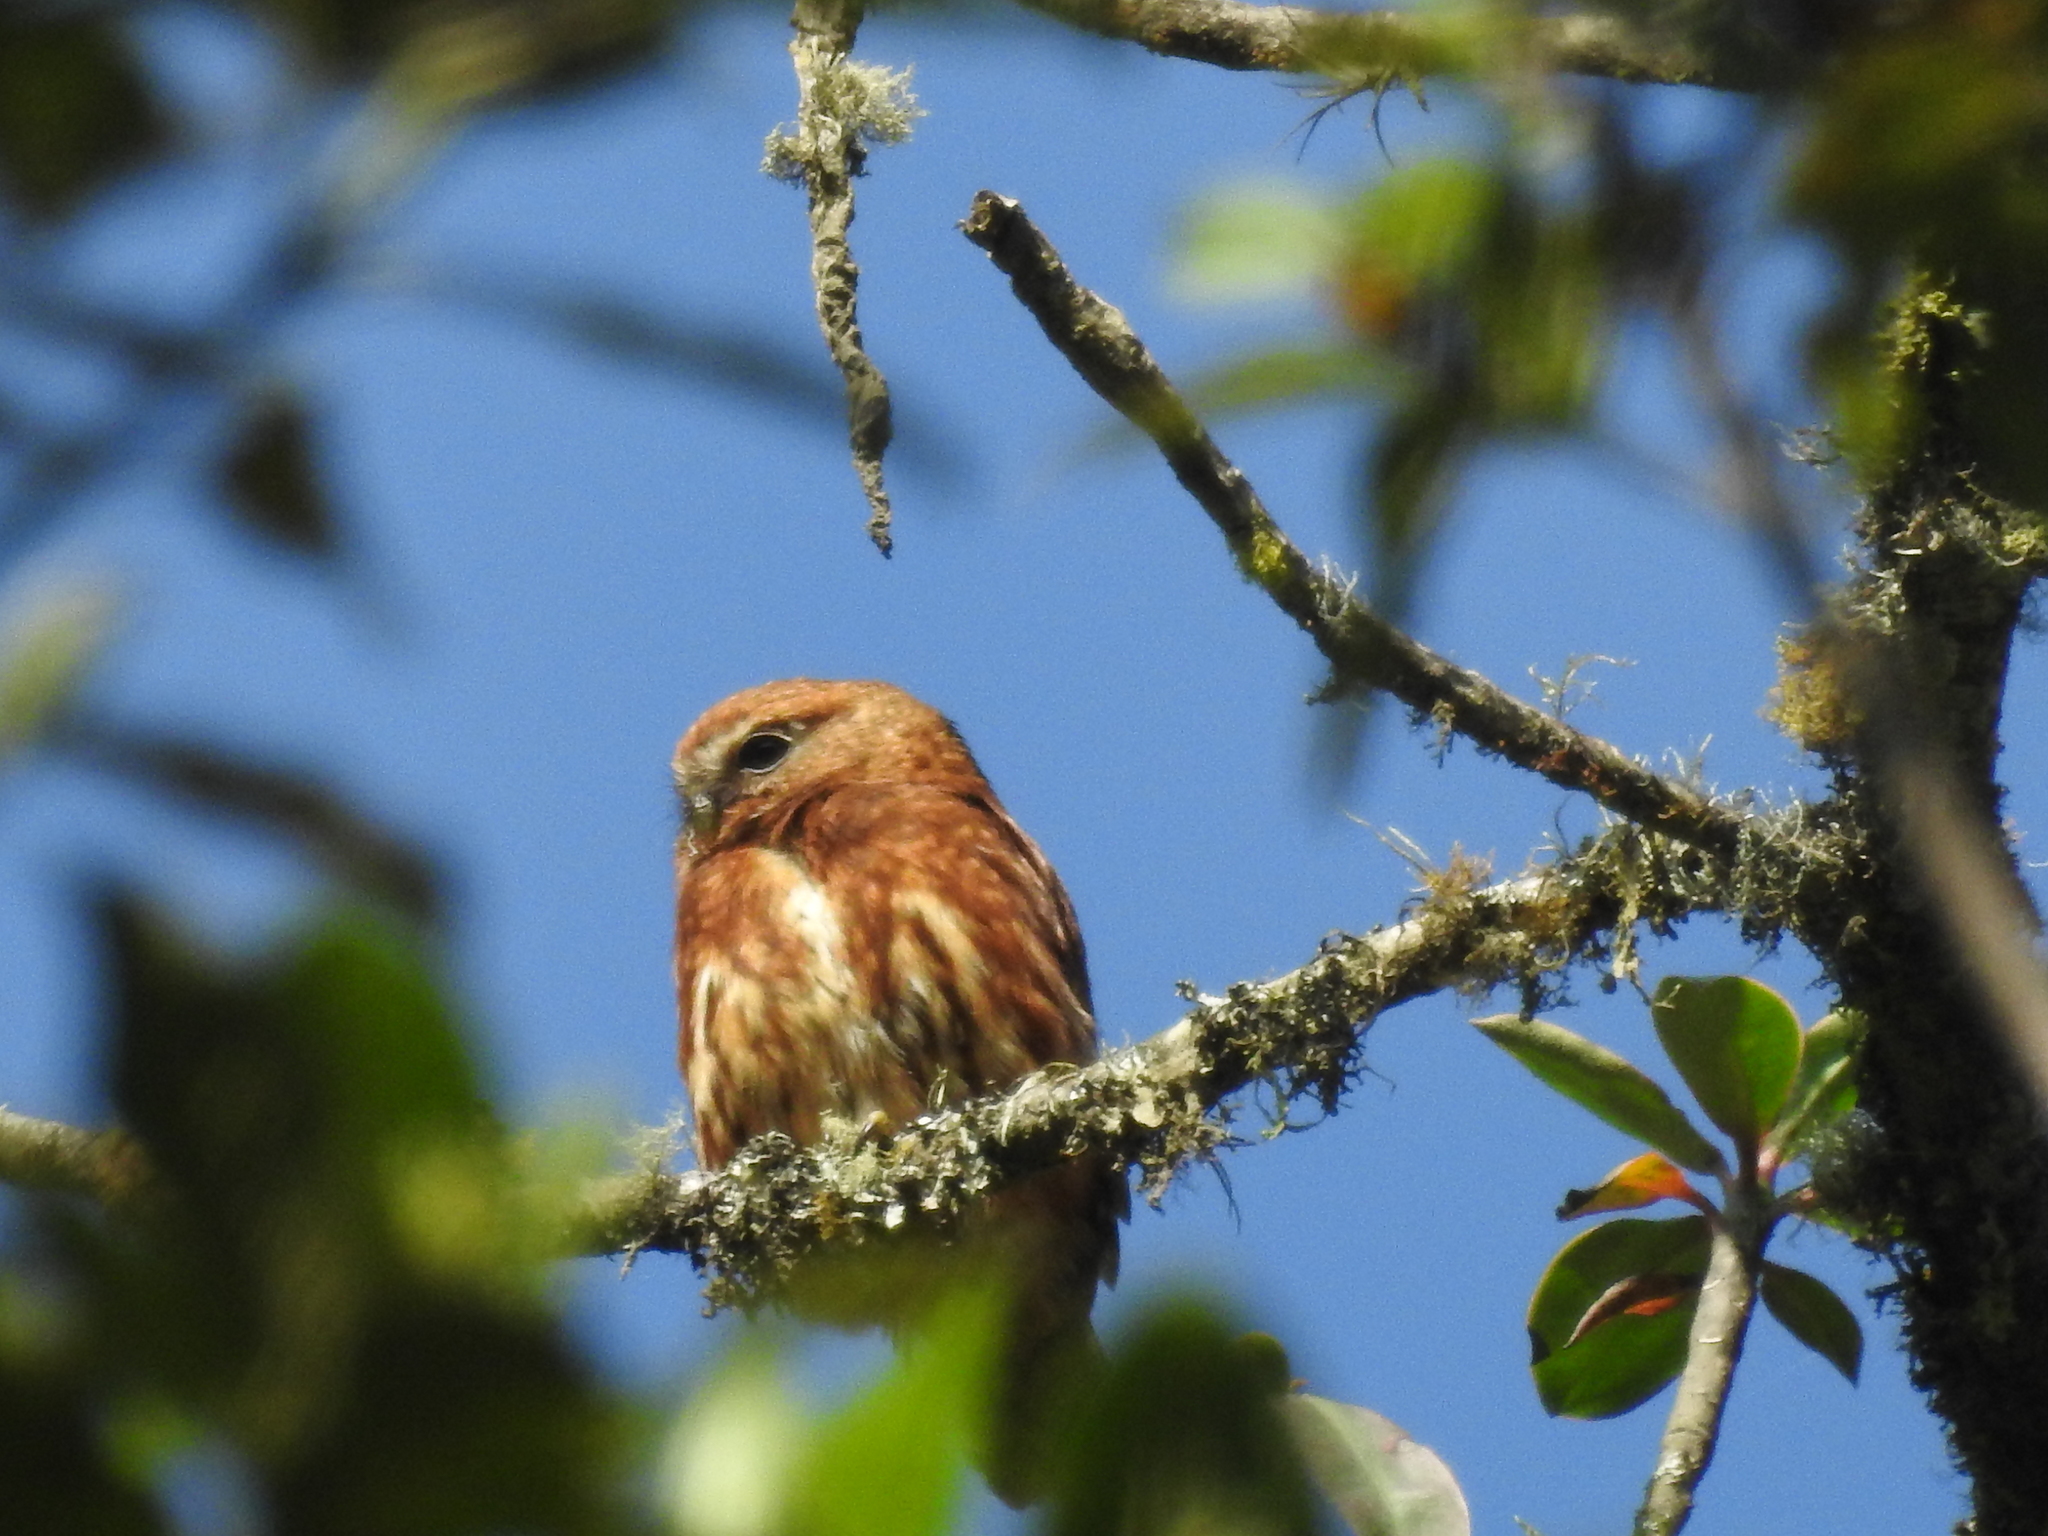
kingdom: Animalia
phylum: Chordata
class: Aves
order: Strigiformes
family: Strigidae
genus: Glaucidium
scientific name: Glaucidium jardinii
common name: Andean pygmy owl
